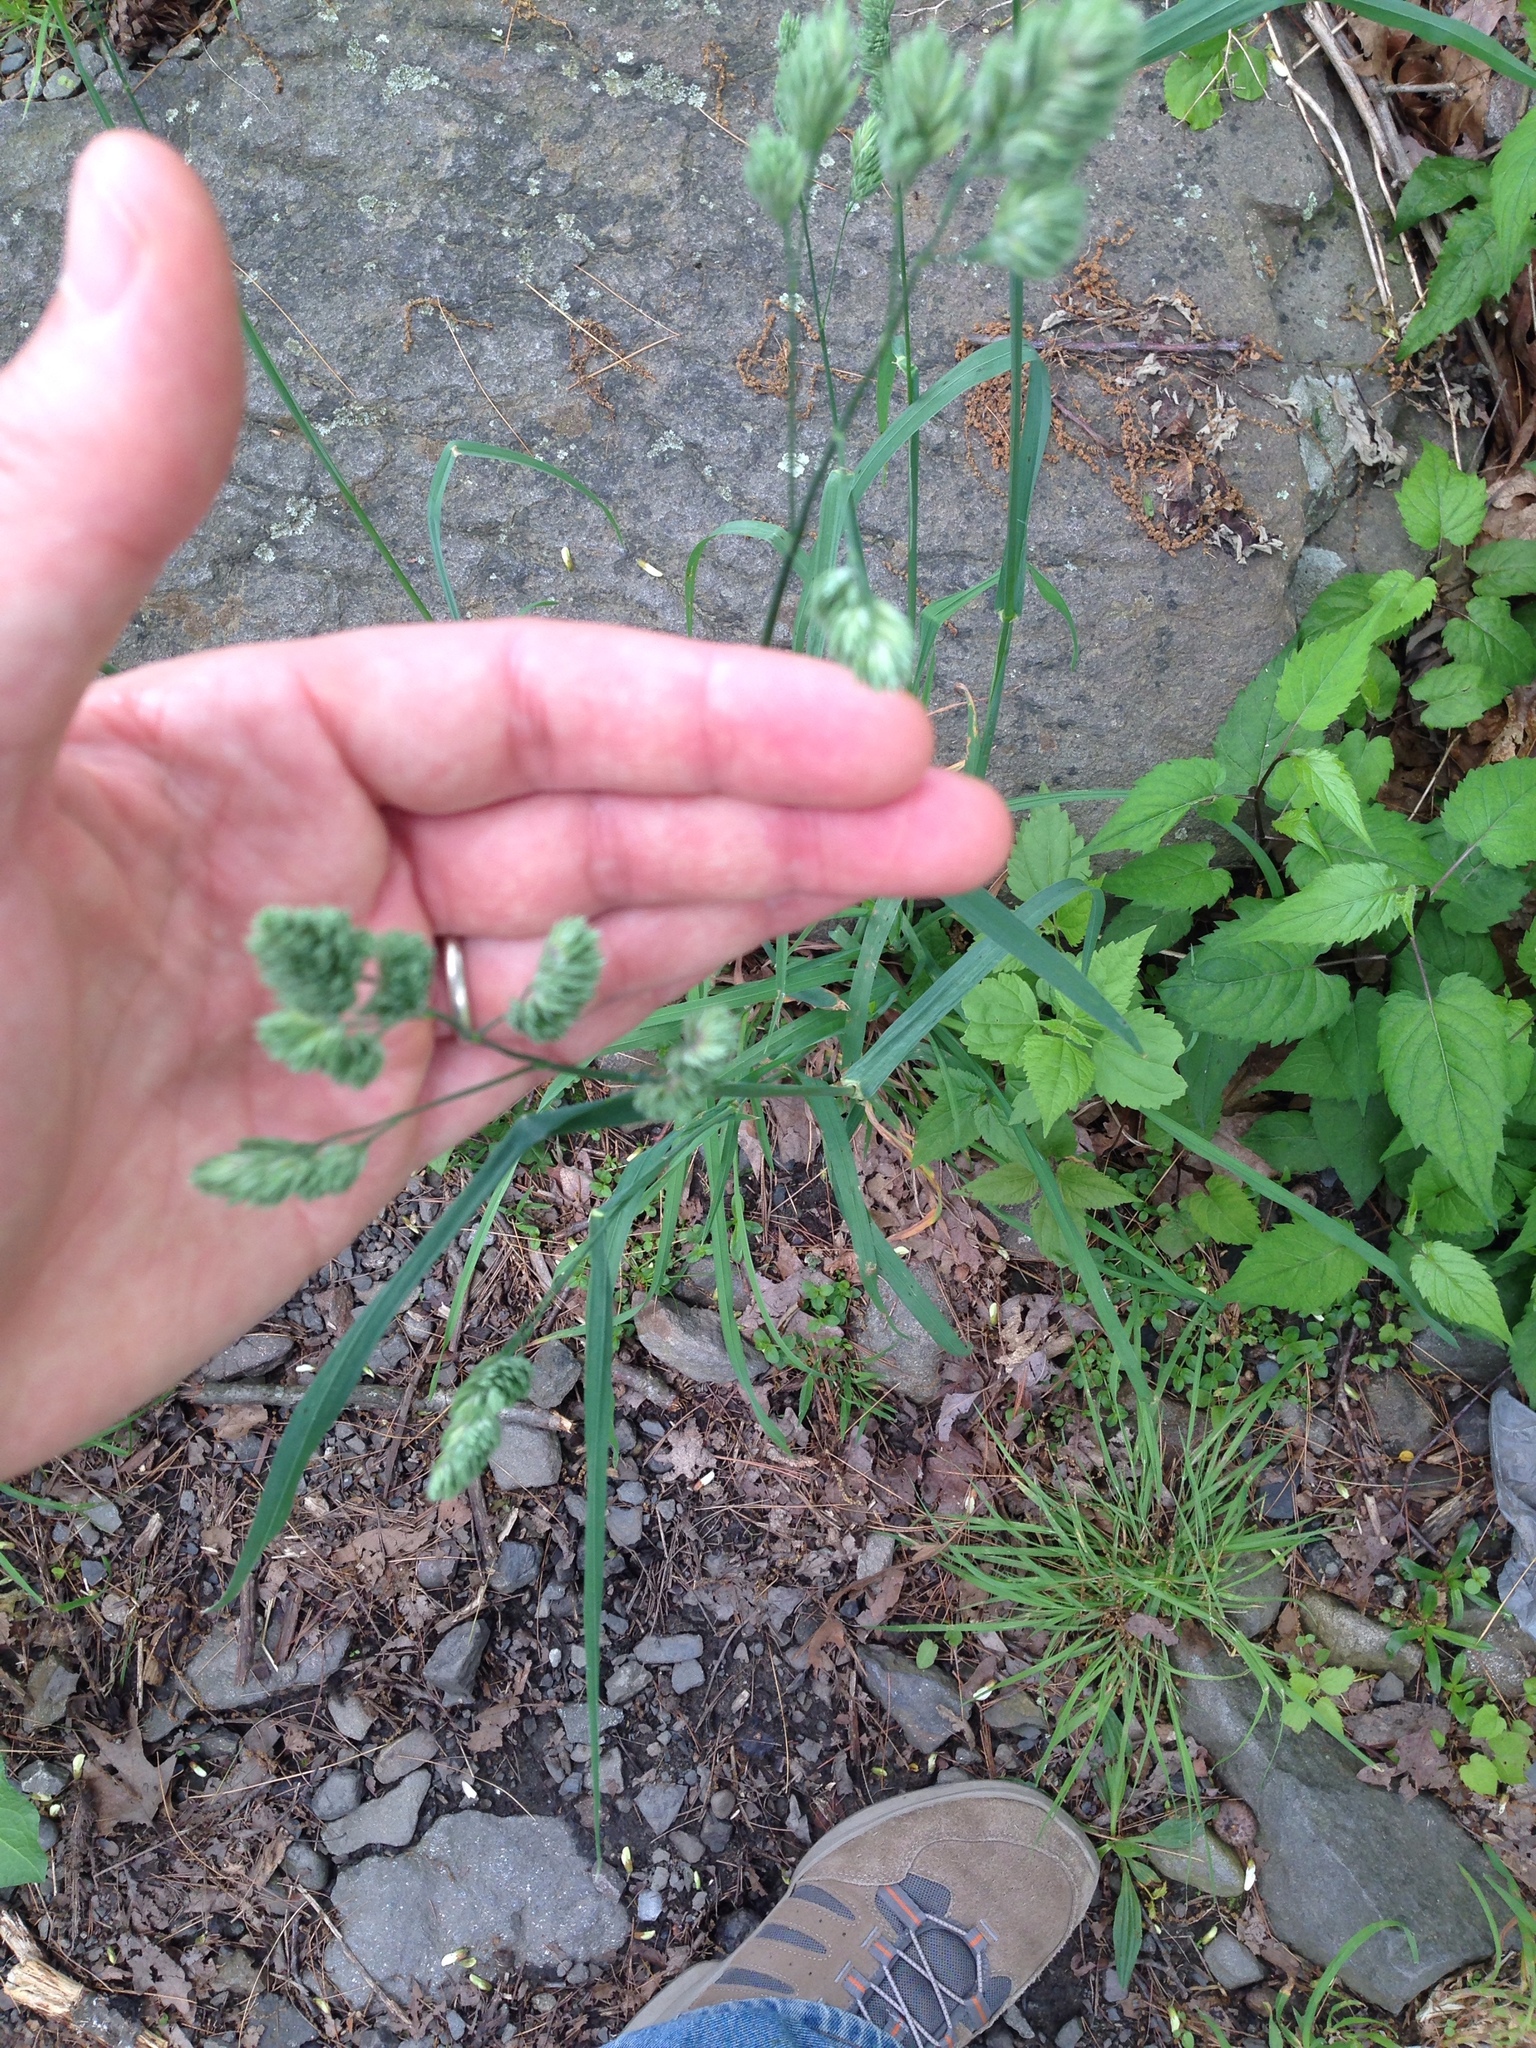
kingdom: Plantae
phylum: Tracheophyta
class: Liliopsida
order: Poales
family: Poaceae
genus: Dactylis
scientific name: Dactylis glomerata
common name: Orchardgrass
